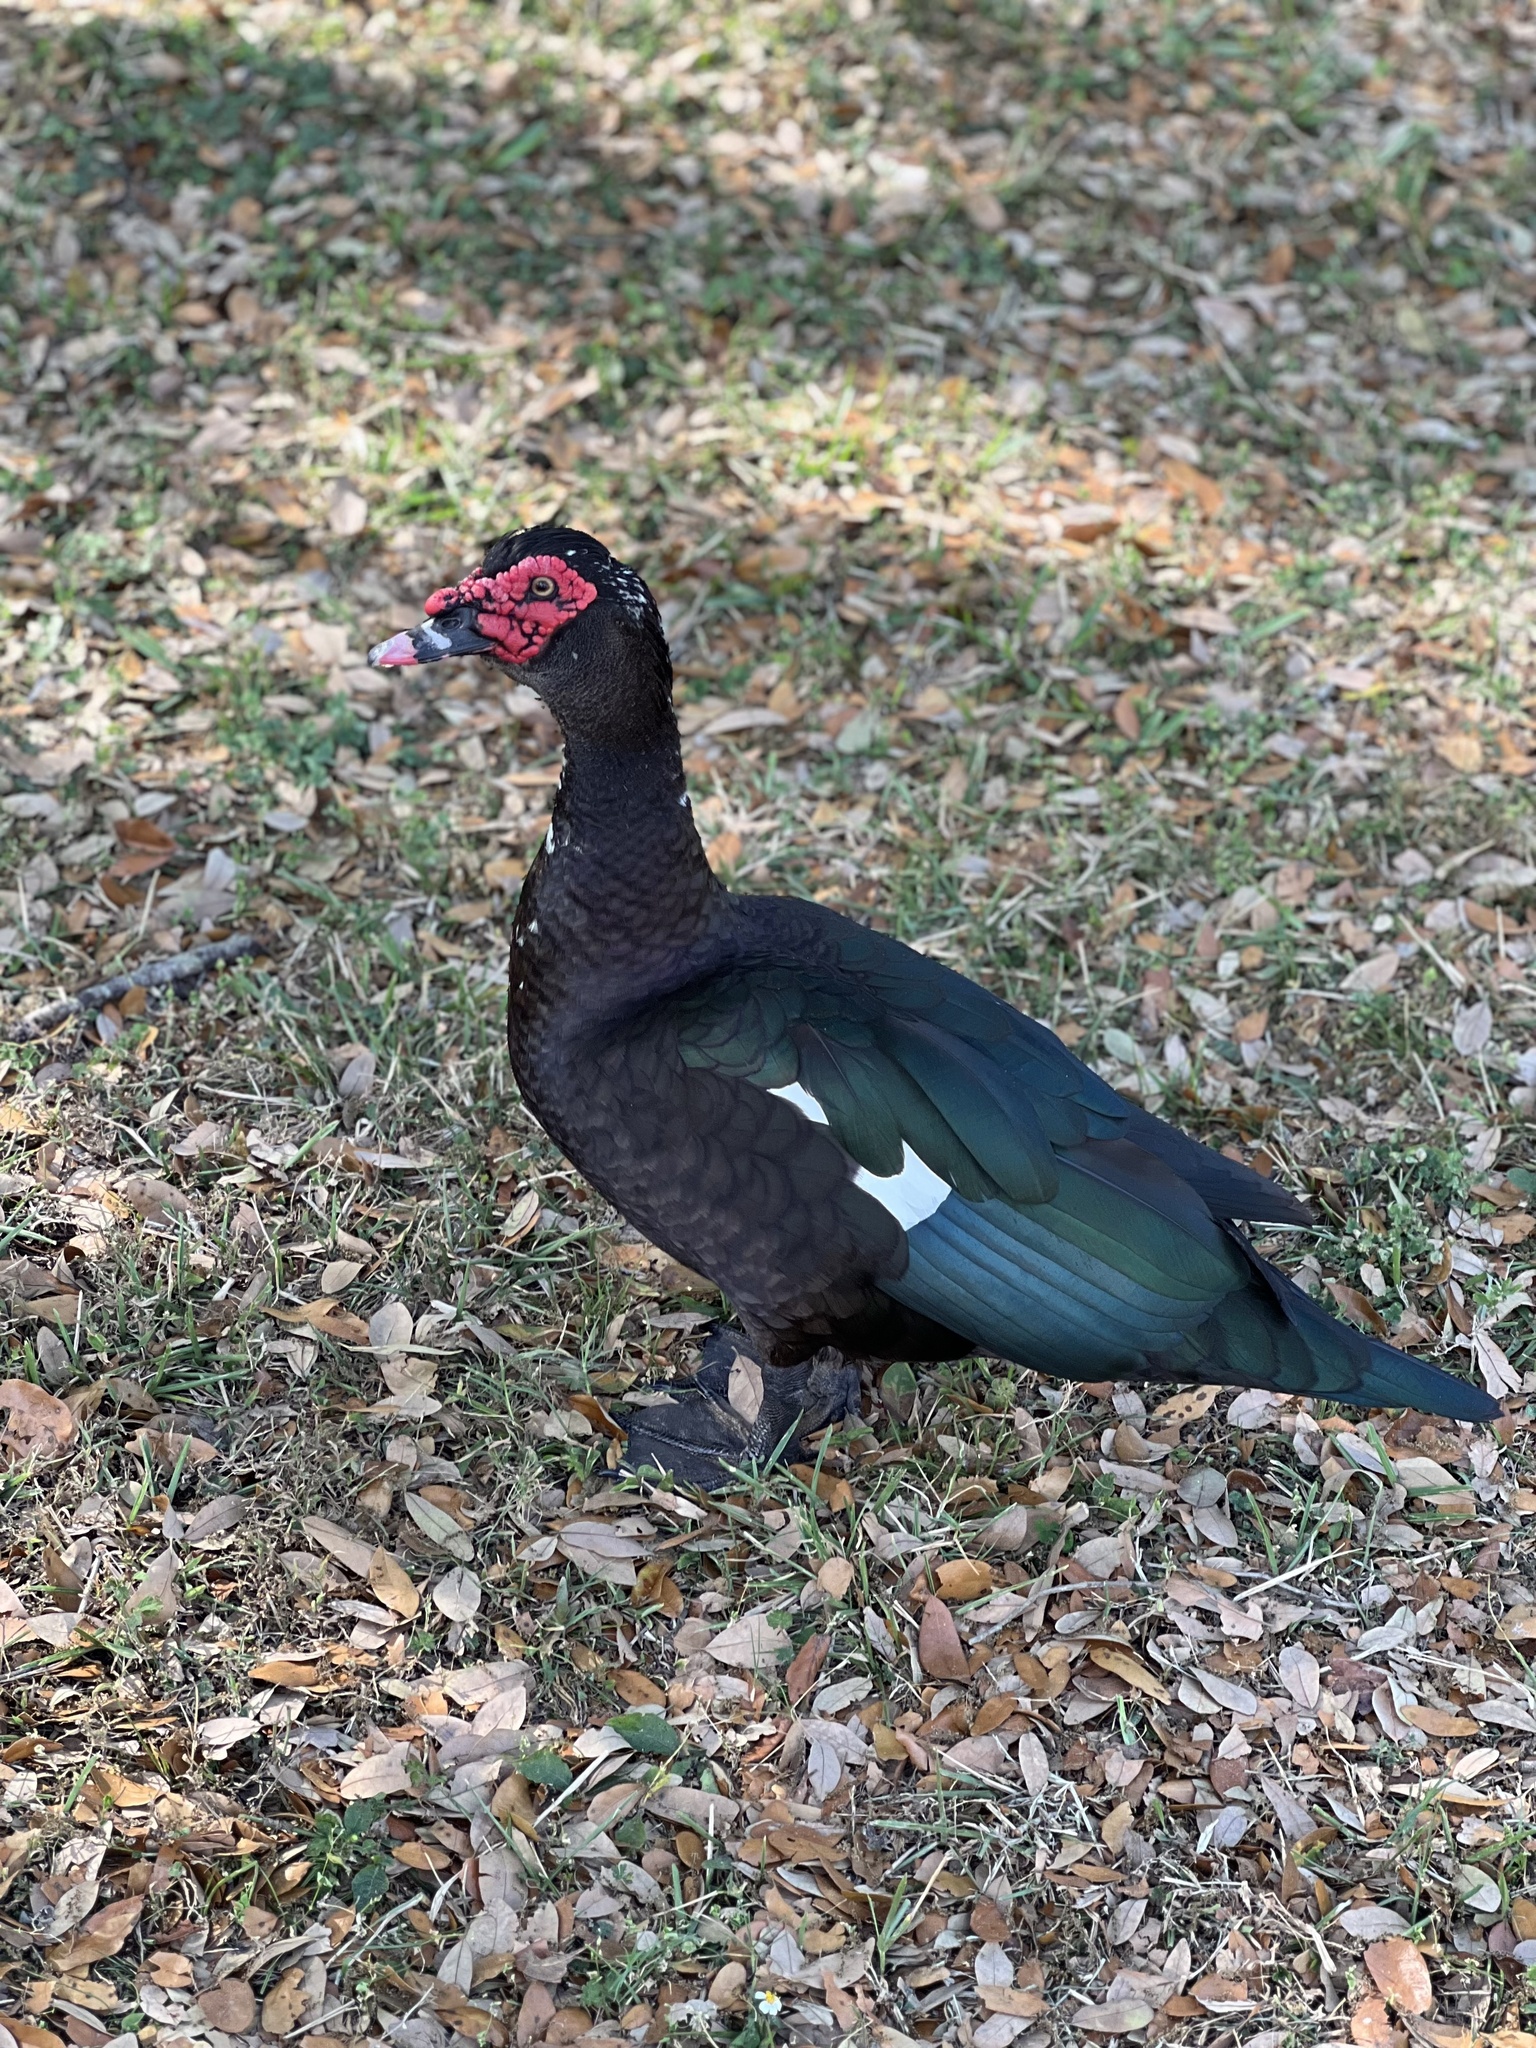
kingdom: Animalia
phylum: Chordata
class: Aves
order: Anseriformes
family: Anatidae
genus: Cairina
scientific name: Cairina moschata
